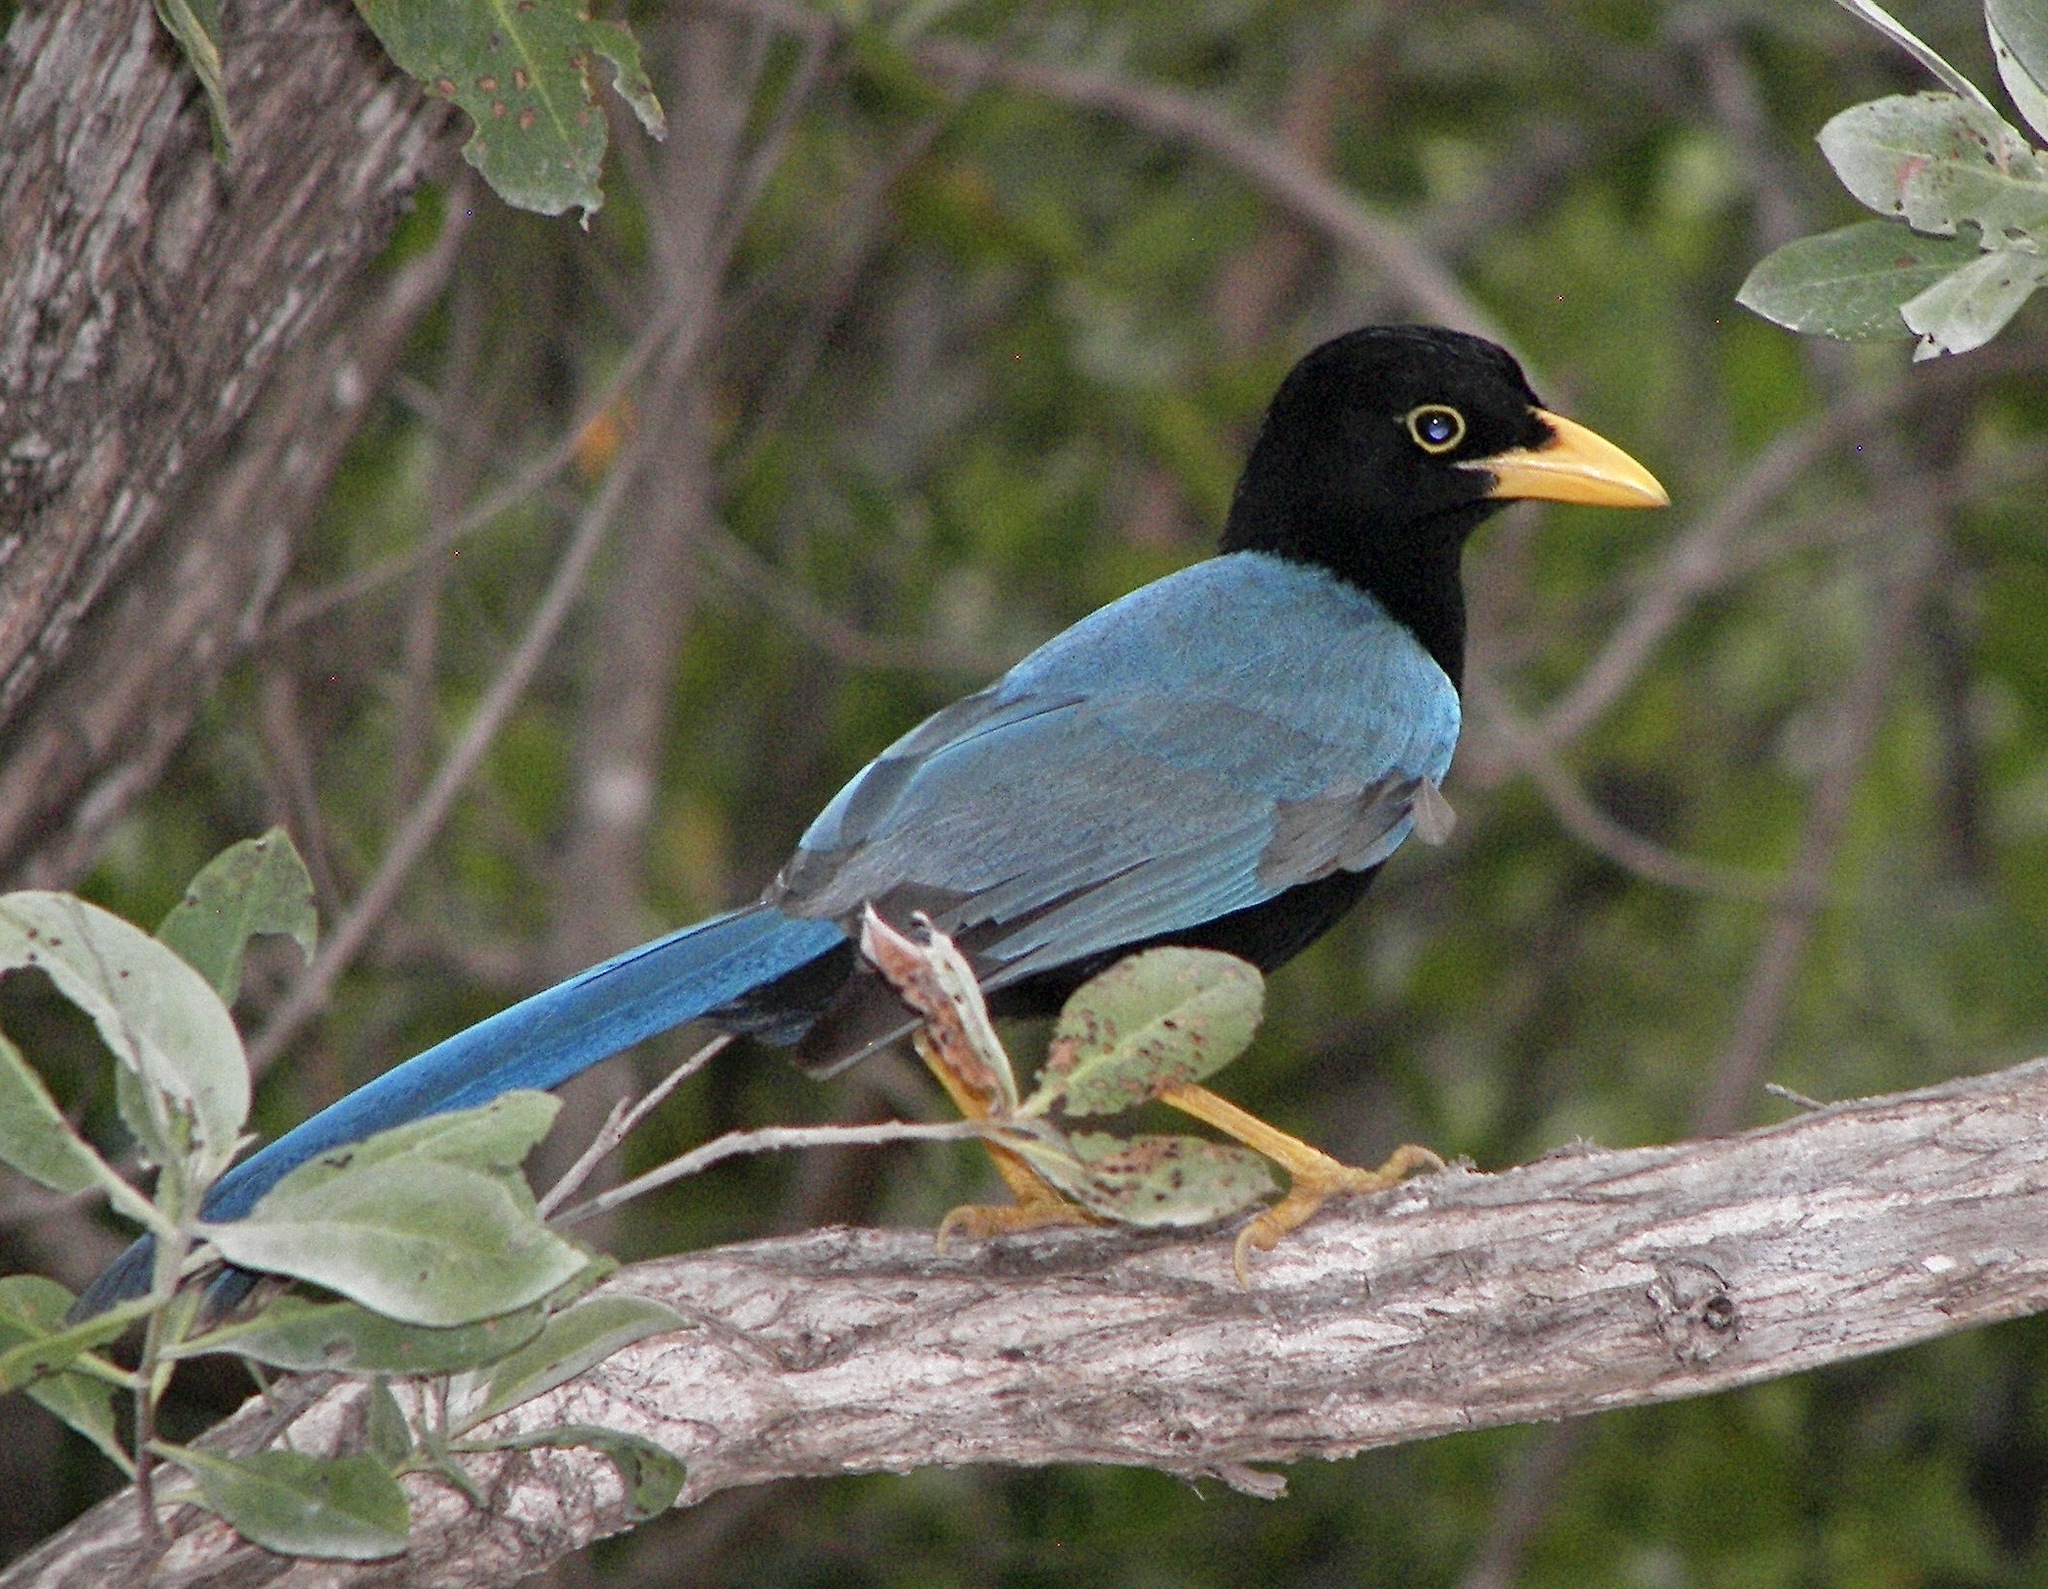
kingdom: Animalia
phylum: Chordata
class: Aves
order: Passeriformes
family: Corvidae
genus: Cyanocorax
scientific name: Cyanocorax yucatanicus
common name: Yucatan jay
